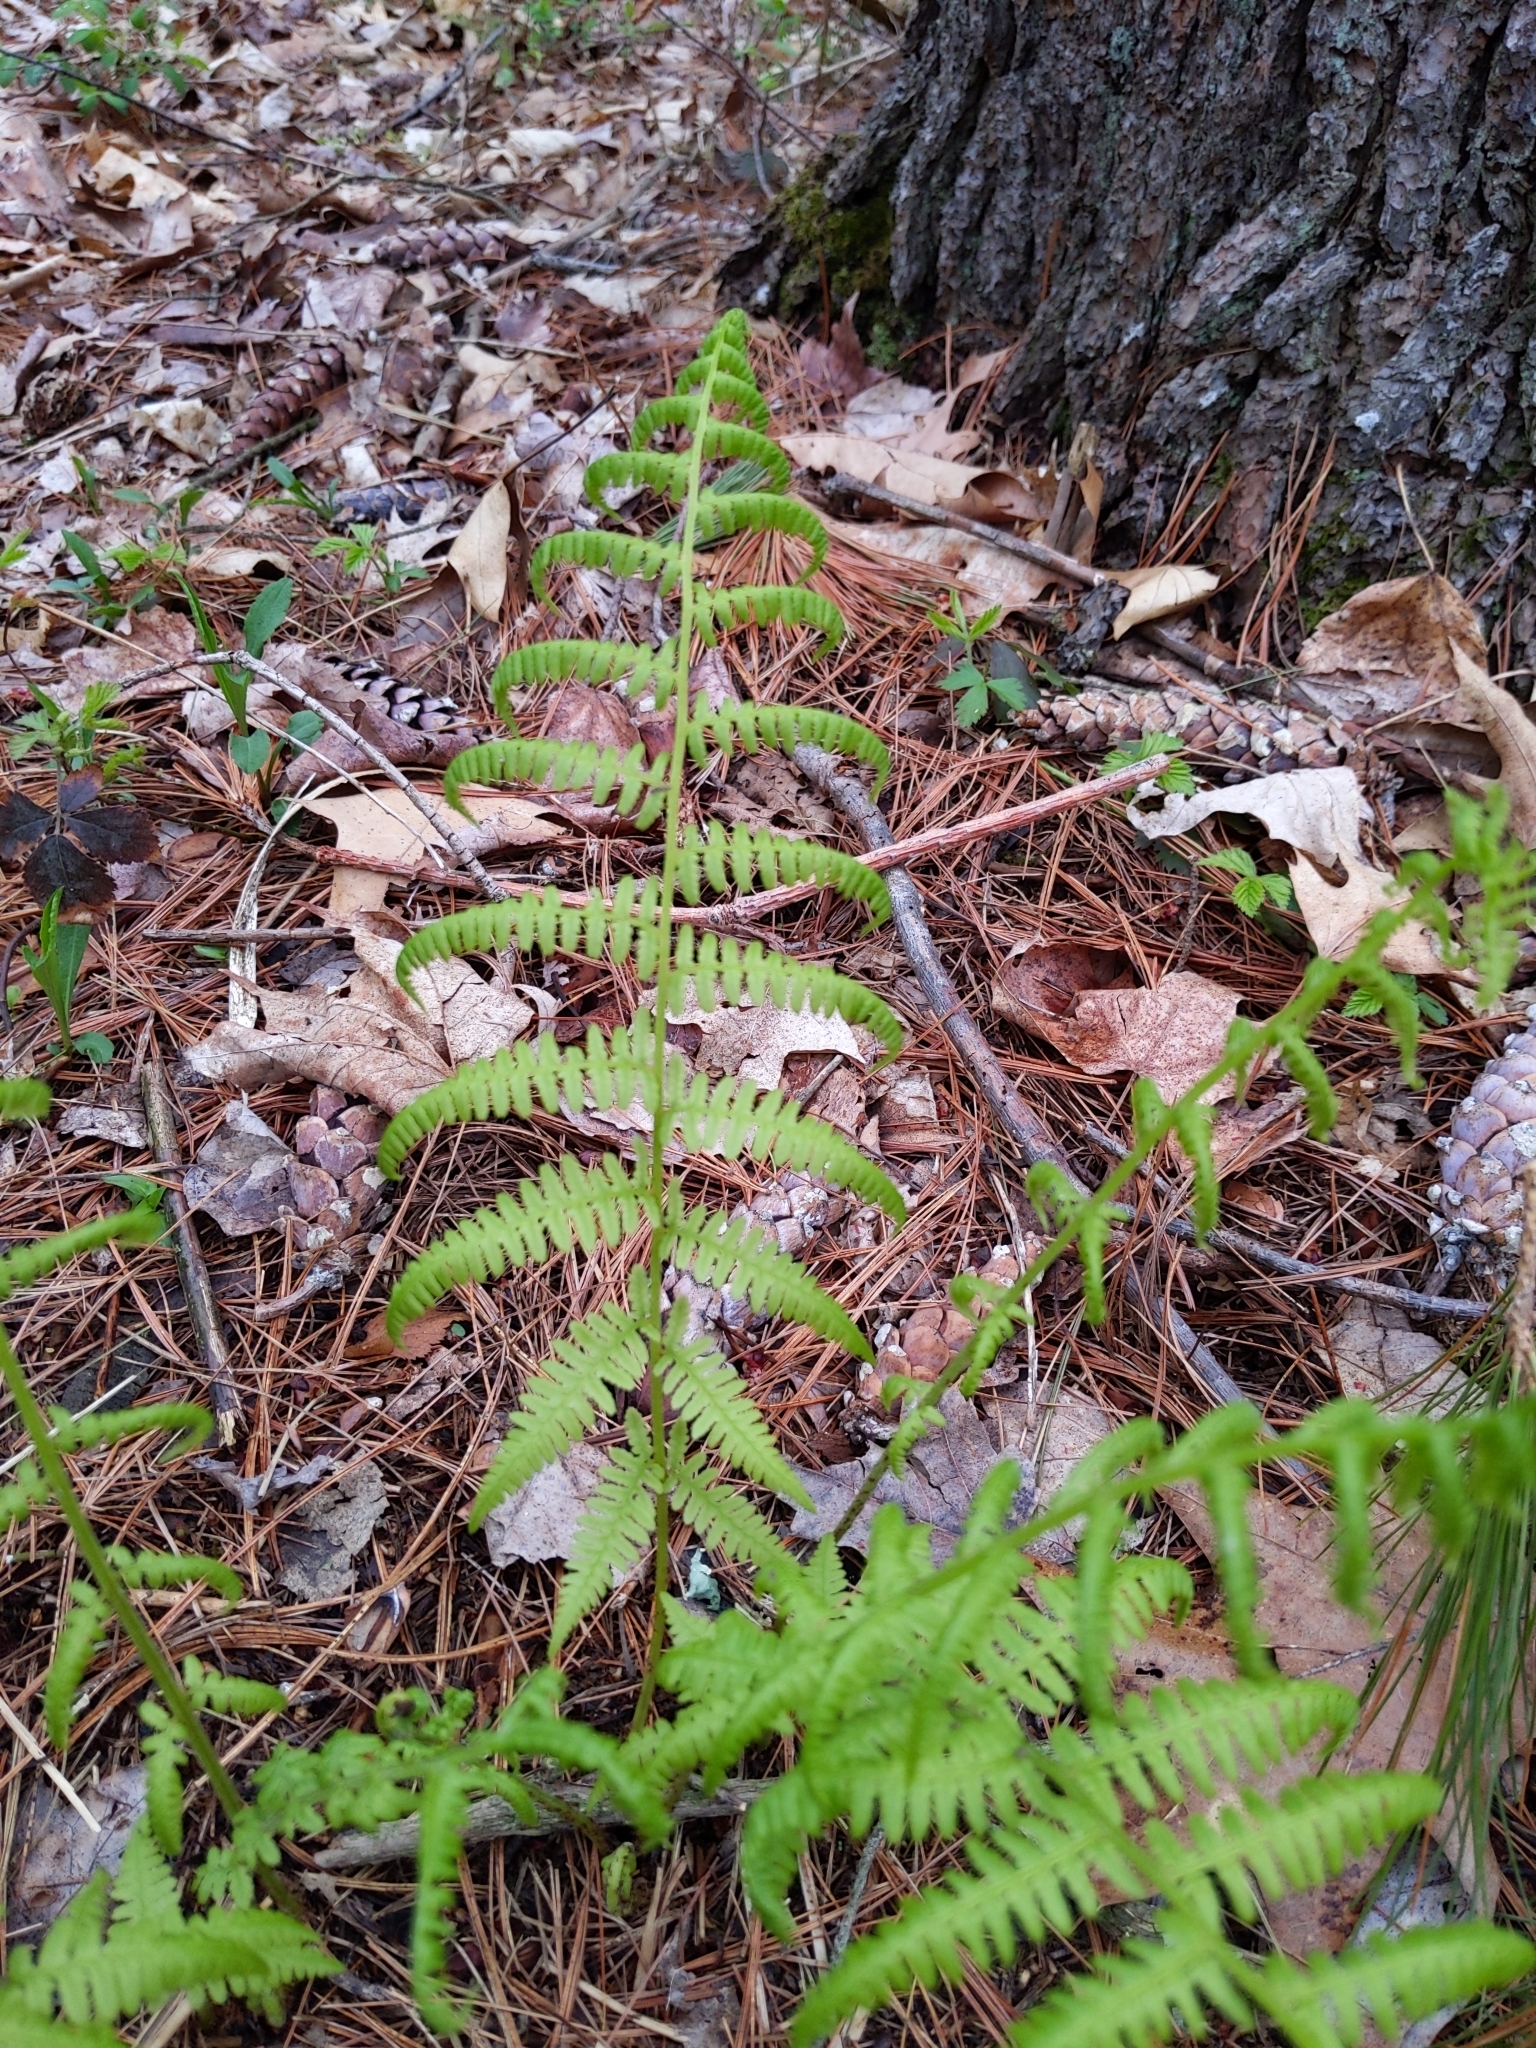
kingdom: Plantae
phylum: Tracheophyta
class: Polypodiopsida
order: Polypodiales
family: Athyriaceae
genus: Athyrium
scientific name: Athyrium angustum
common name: Northern lady fern
